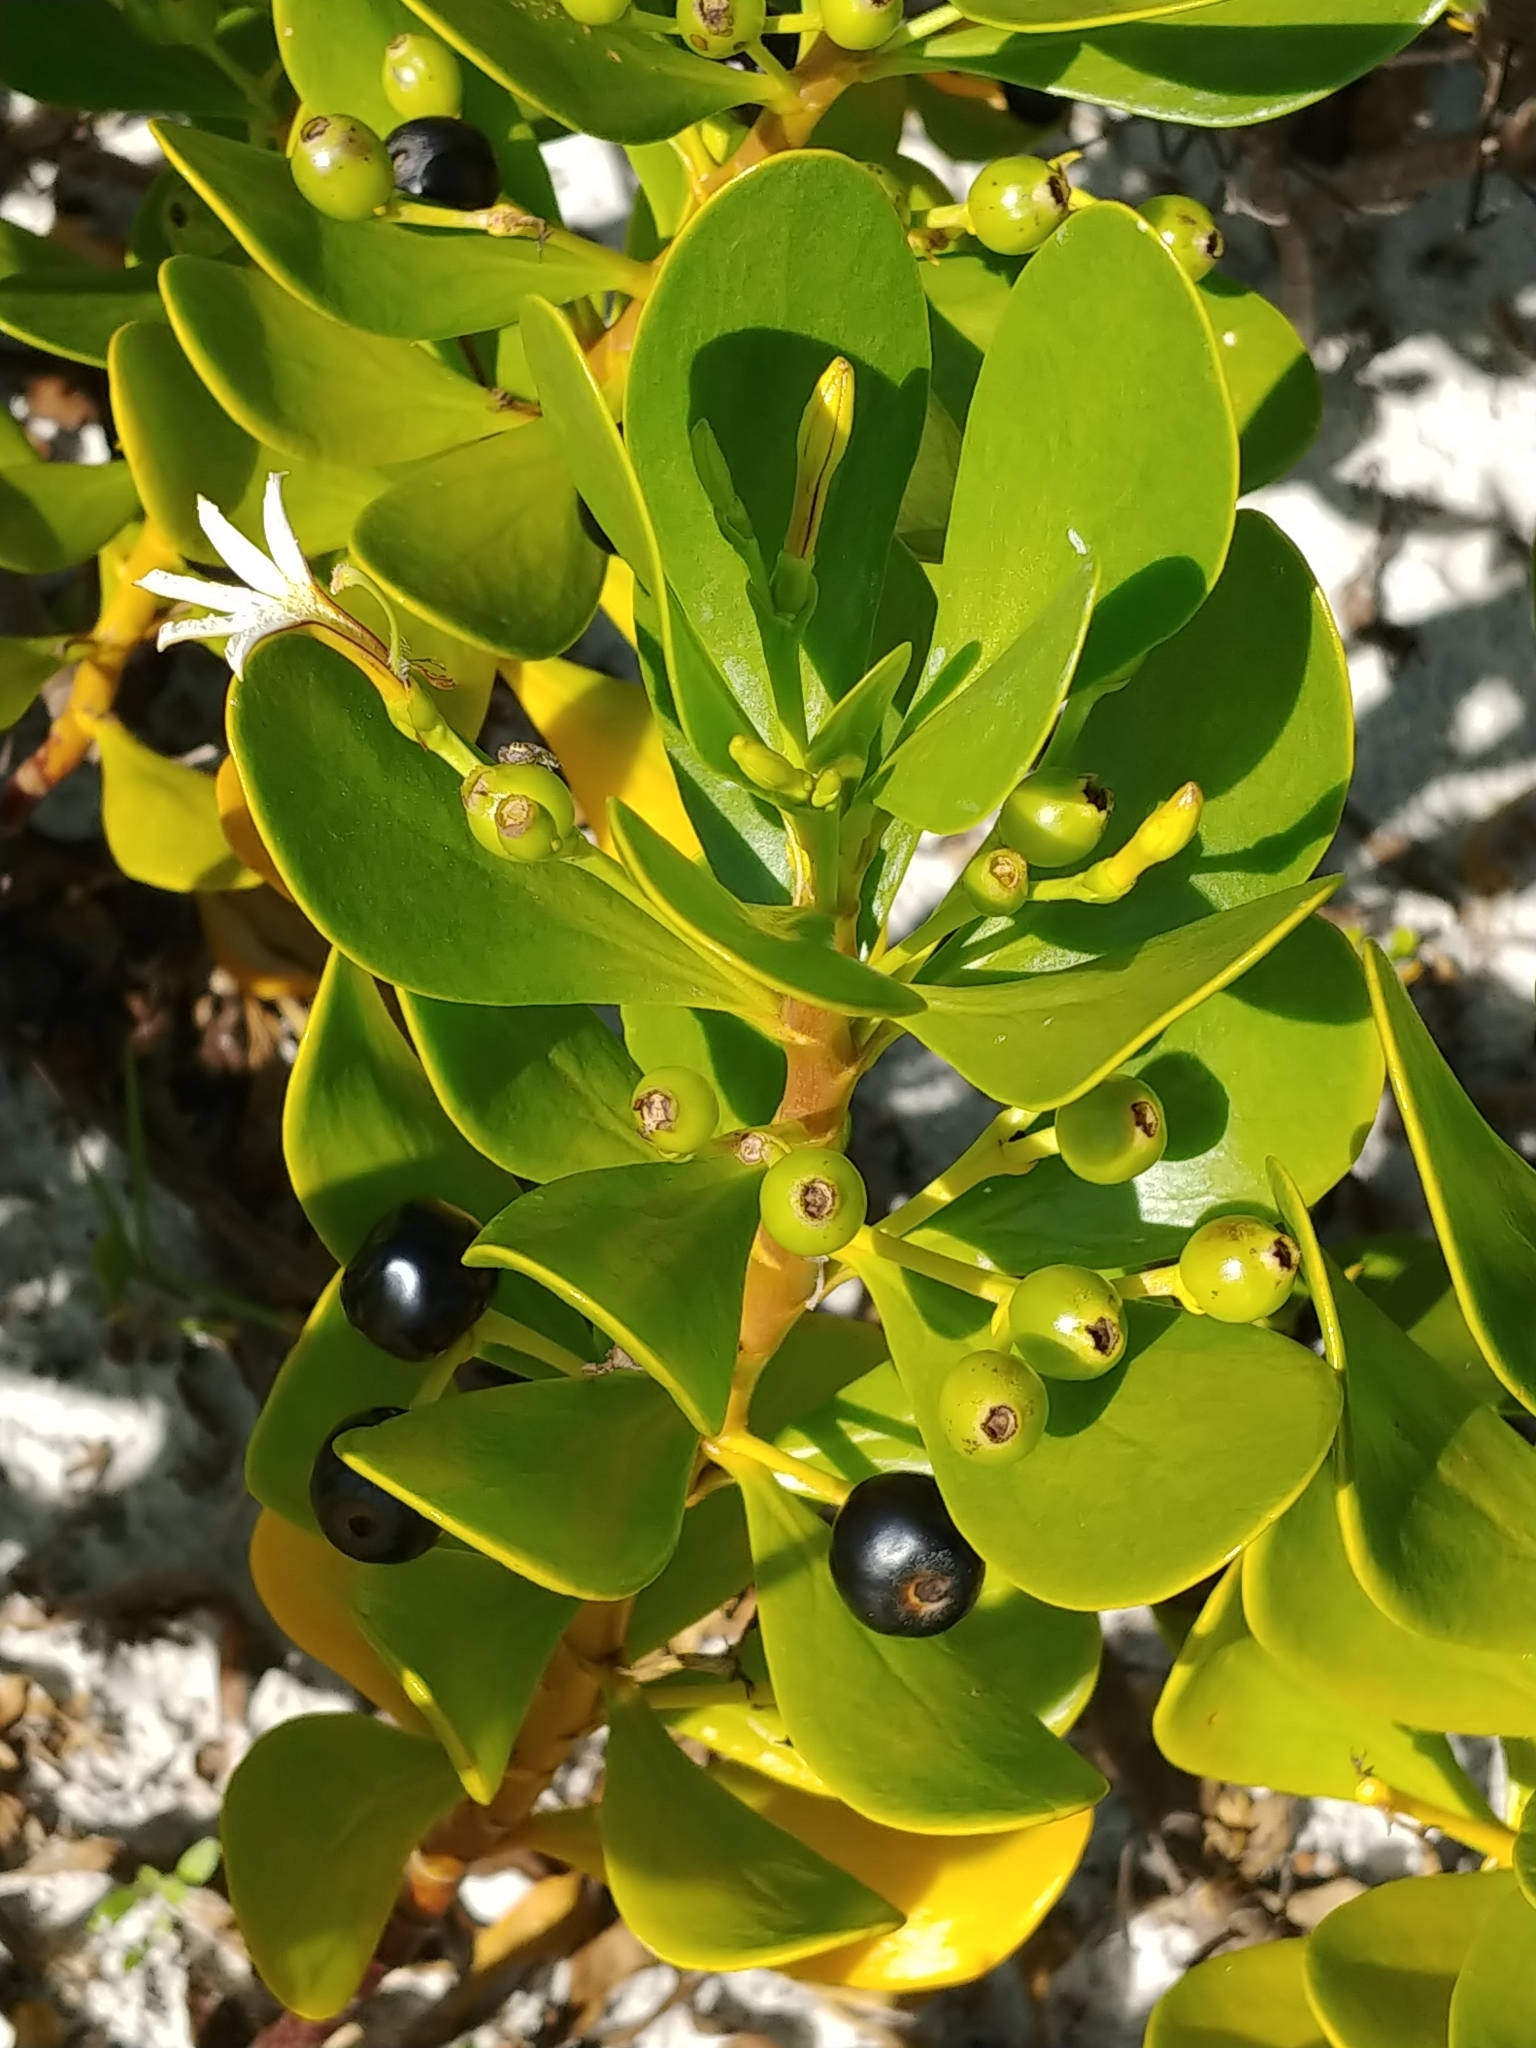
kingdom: Plantae
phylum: Tracheophyta
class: Magnoliopsida
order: Asterales
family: Goodeniaceae
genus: Scaevola
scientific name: Scaevola plumieri
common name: Gull feed
